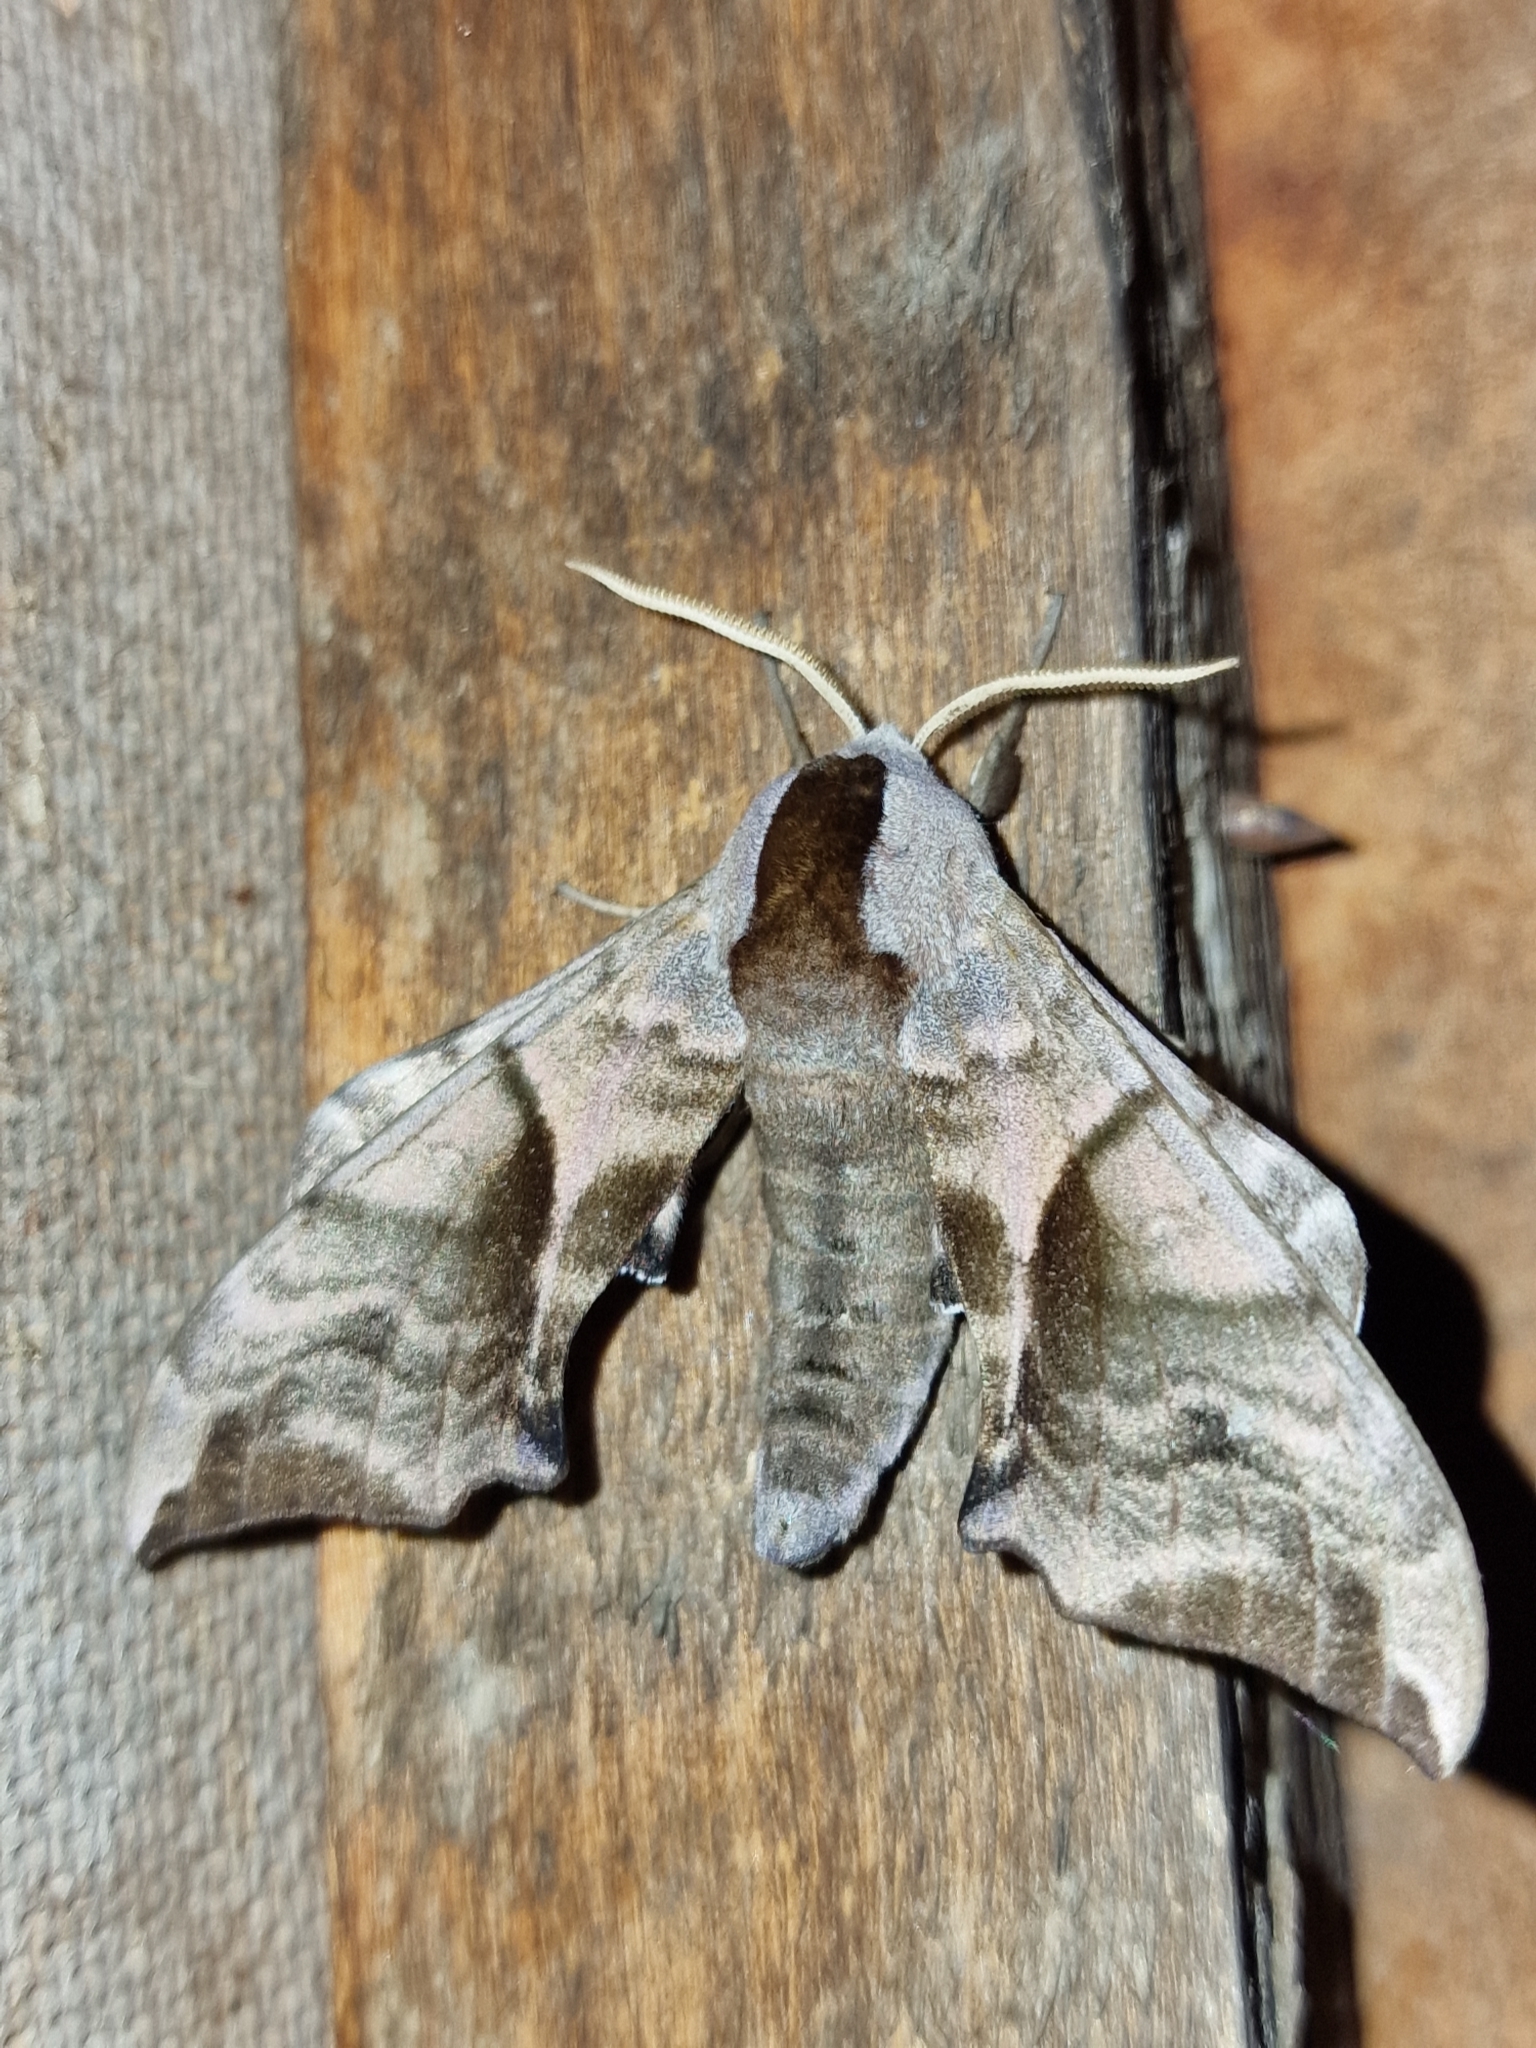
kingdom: Animalia
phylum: Arthropoda
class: Insecta
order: Lepidoptera
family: Sphingidae
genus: Smerinthus
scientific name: Smerinthus ocellata
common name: Eyed hawk-moth
